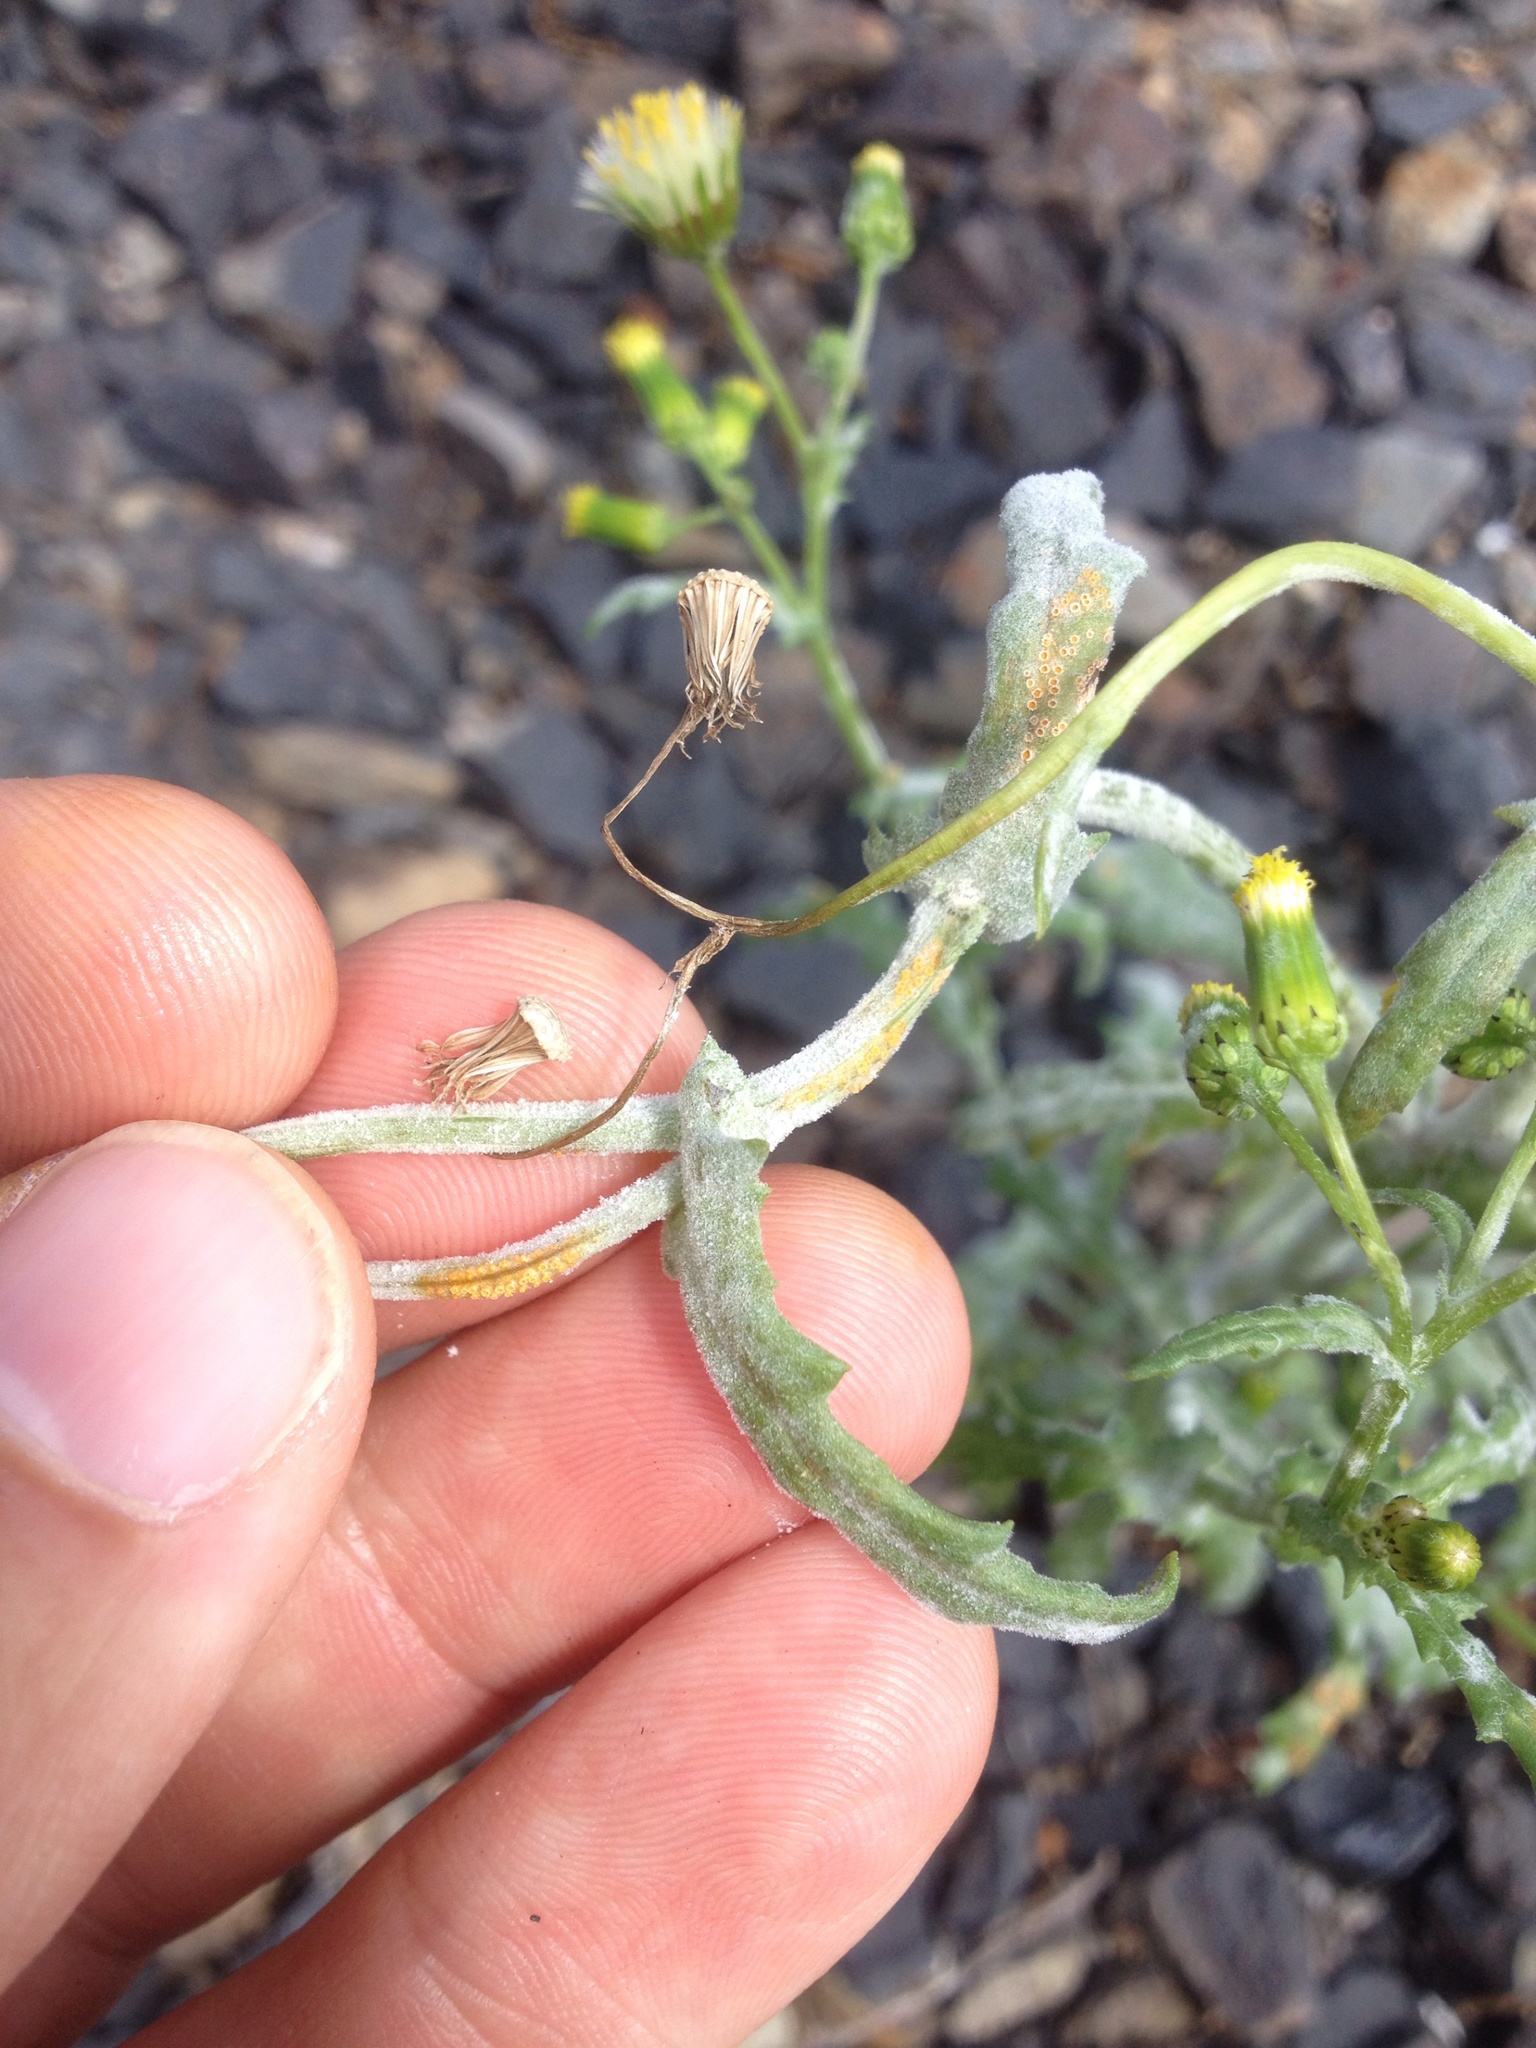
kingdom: Fungi
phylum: Basidiomycota
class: Pucciniomycetes
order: Pucciniales
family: Pucciniaceae
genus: Puccinia
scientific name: Puccinia lagenophorae
